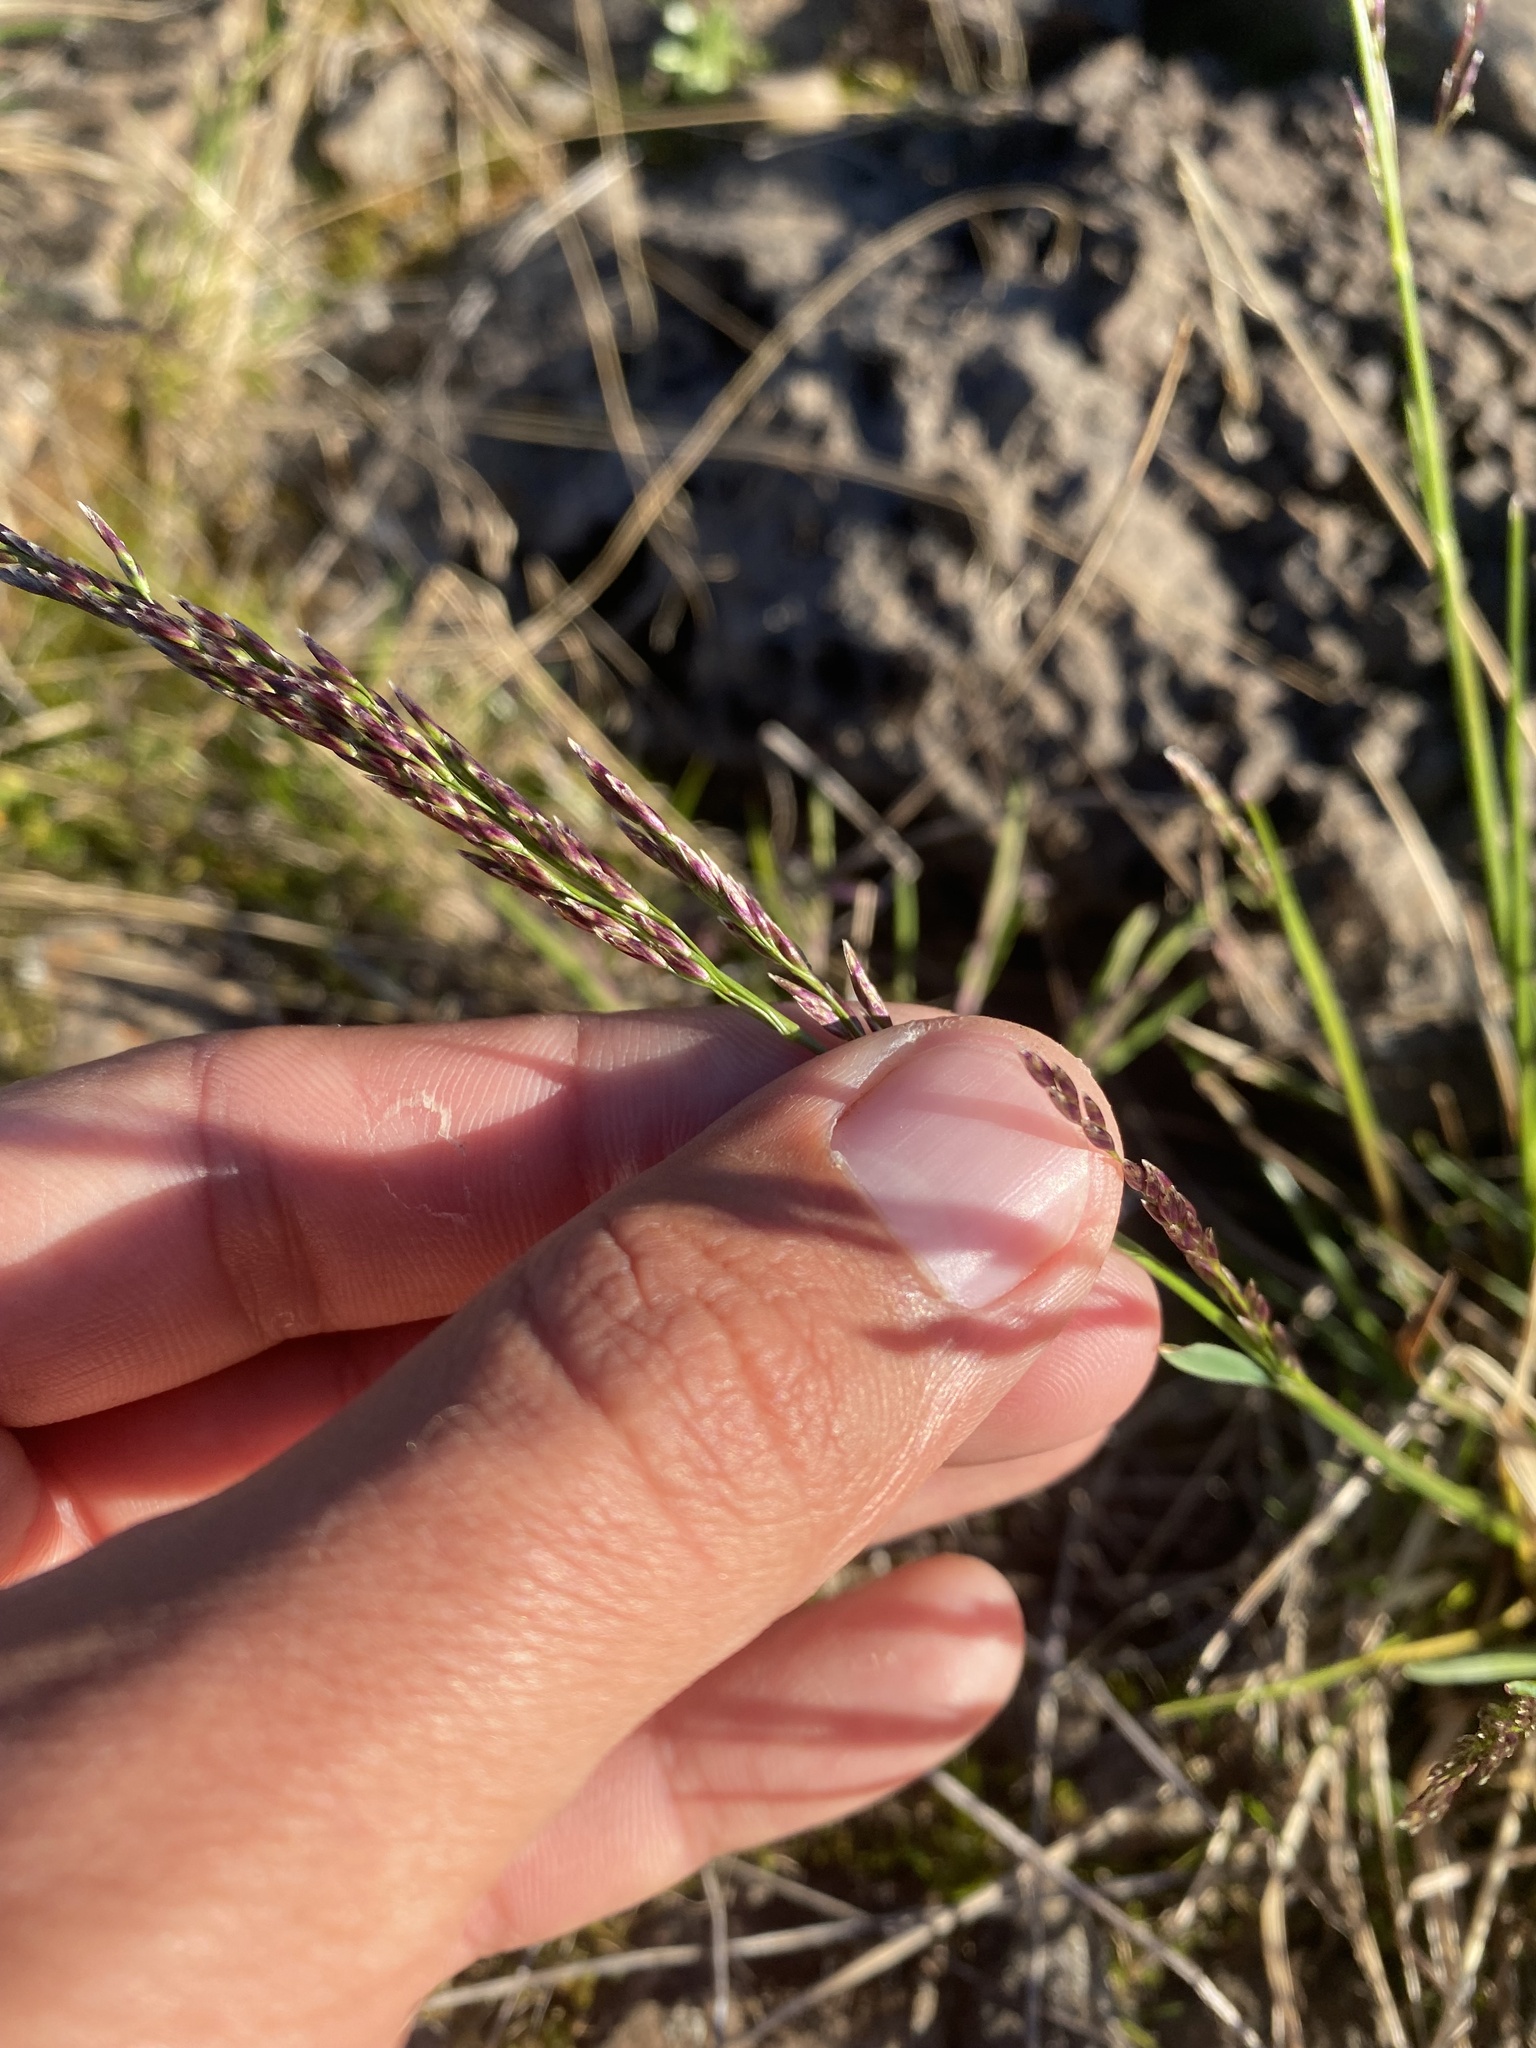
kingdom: Plantae
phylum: Tracheophyta
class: Liliopsida
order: Poales
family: Poaceae
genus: Deschampsia
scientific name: Deschampsia cespitosa
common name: Tufted hair-grass
